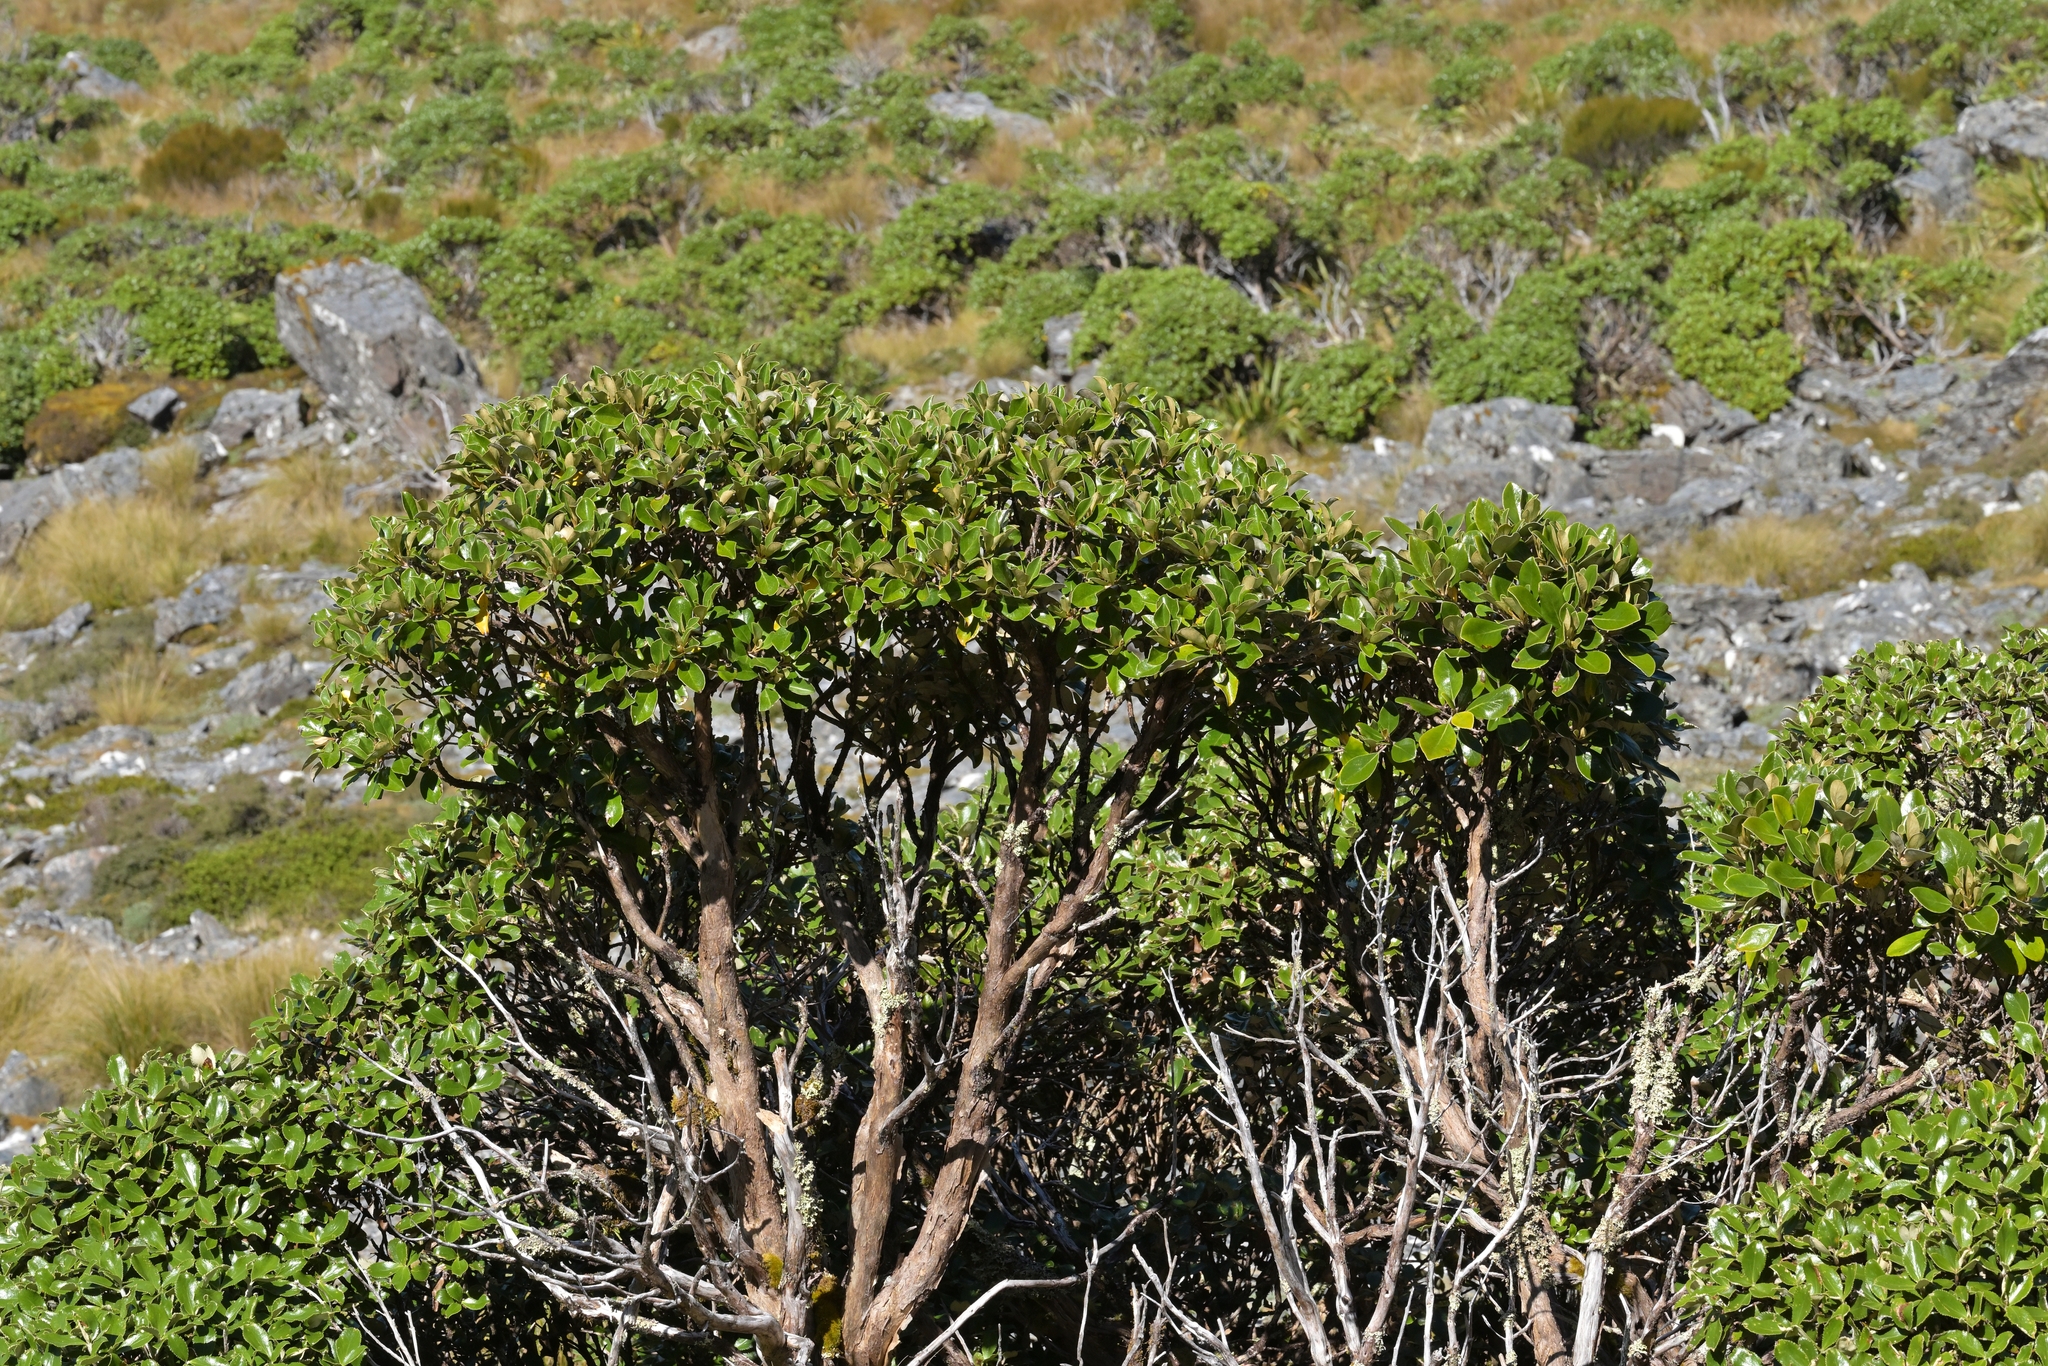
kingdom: Plantae
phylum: Tracheophyta
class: Magnoliopsida
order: Asterales
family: Asteraceae
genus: Macrolearia
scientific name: Macrolearia colensoi
